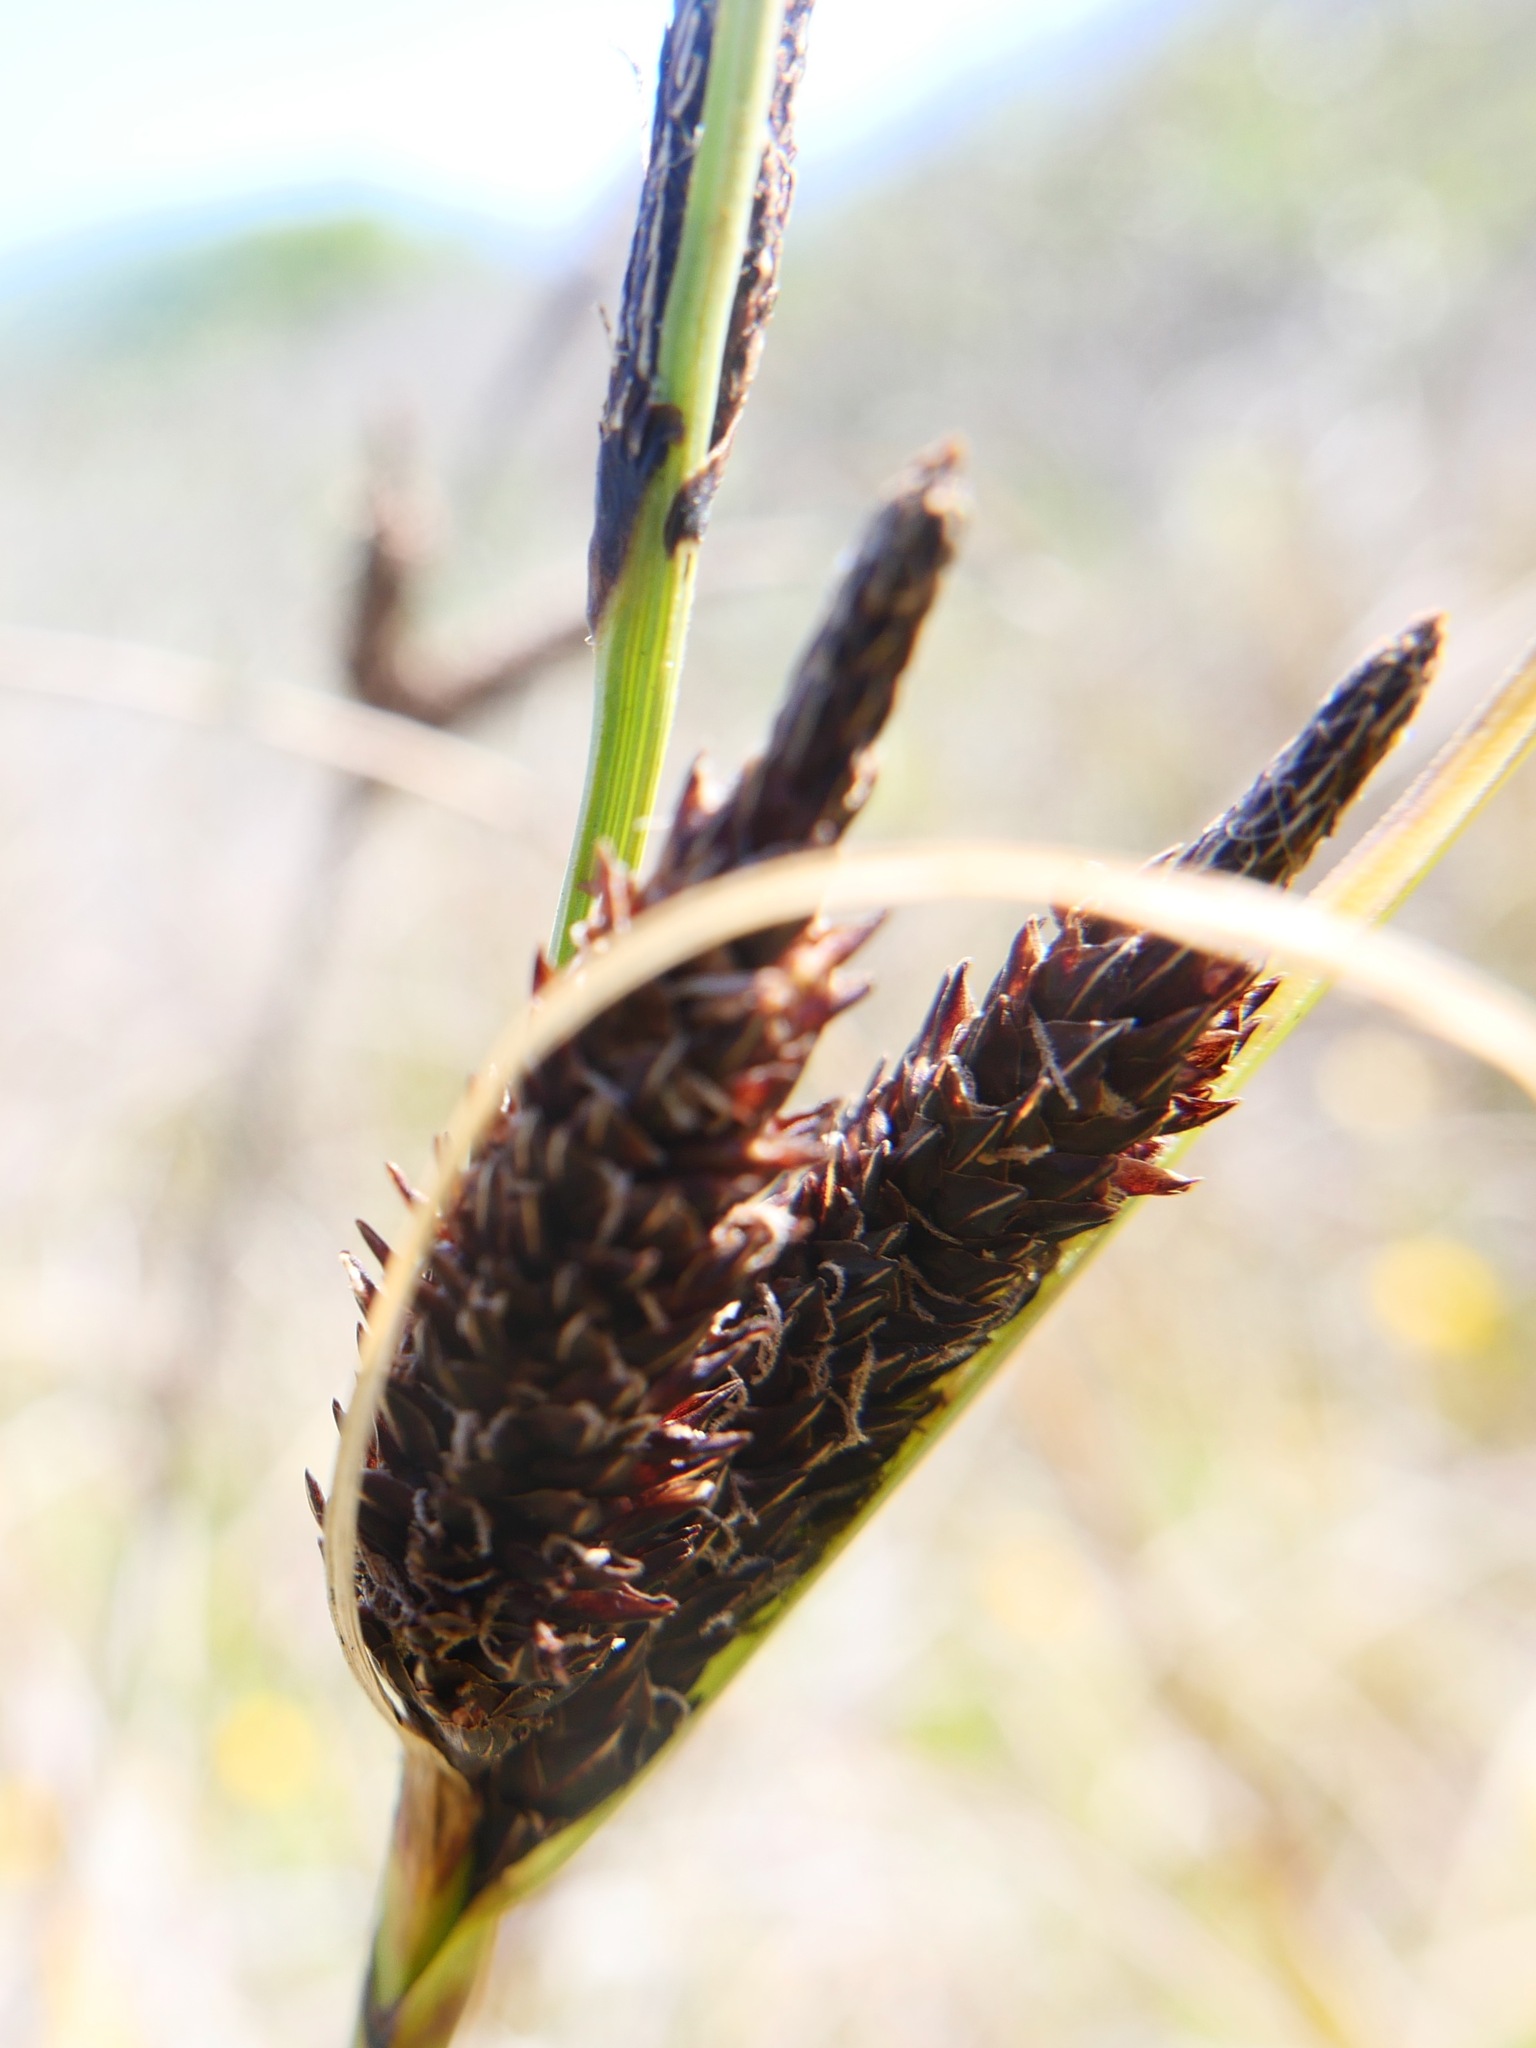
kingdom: Plantae
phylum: Tracheophyta
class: Liliopsida
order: Poales
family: Cyperaceae
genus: Carex
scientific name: Carex obnupta
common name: Slough sedge
